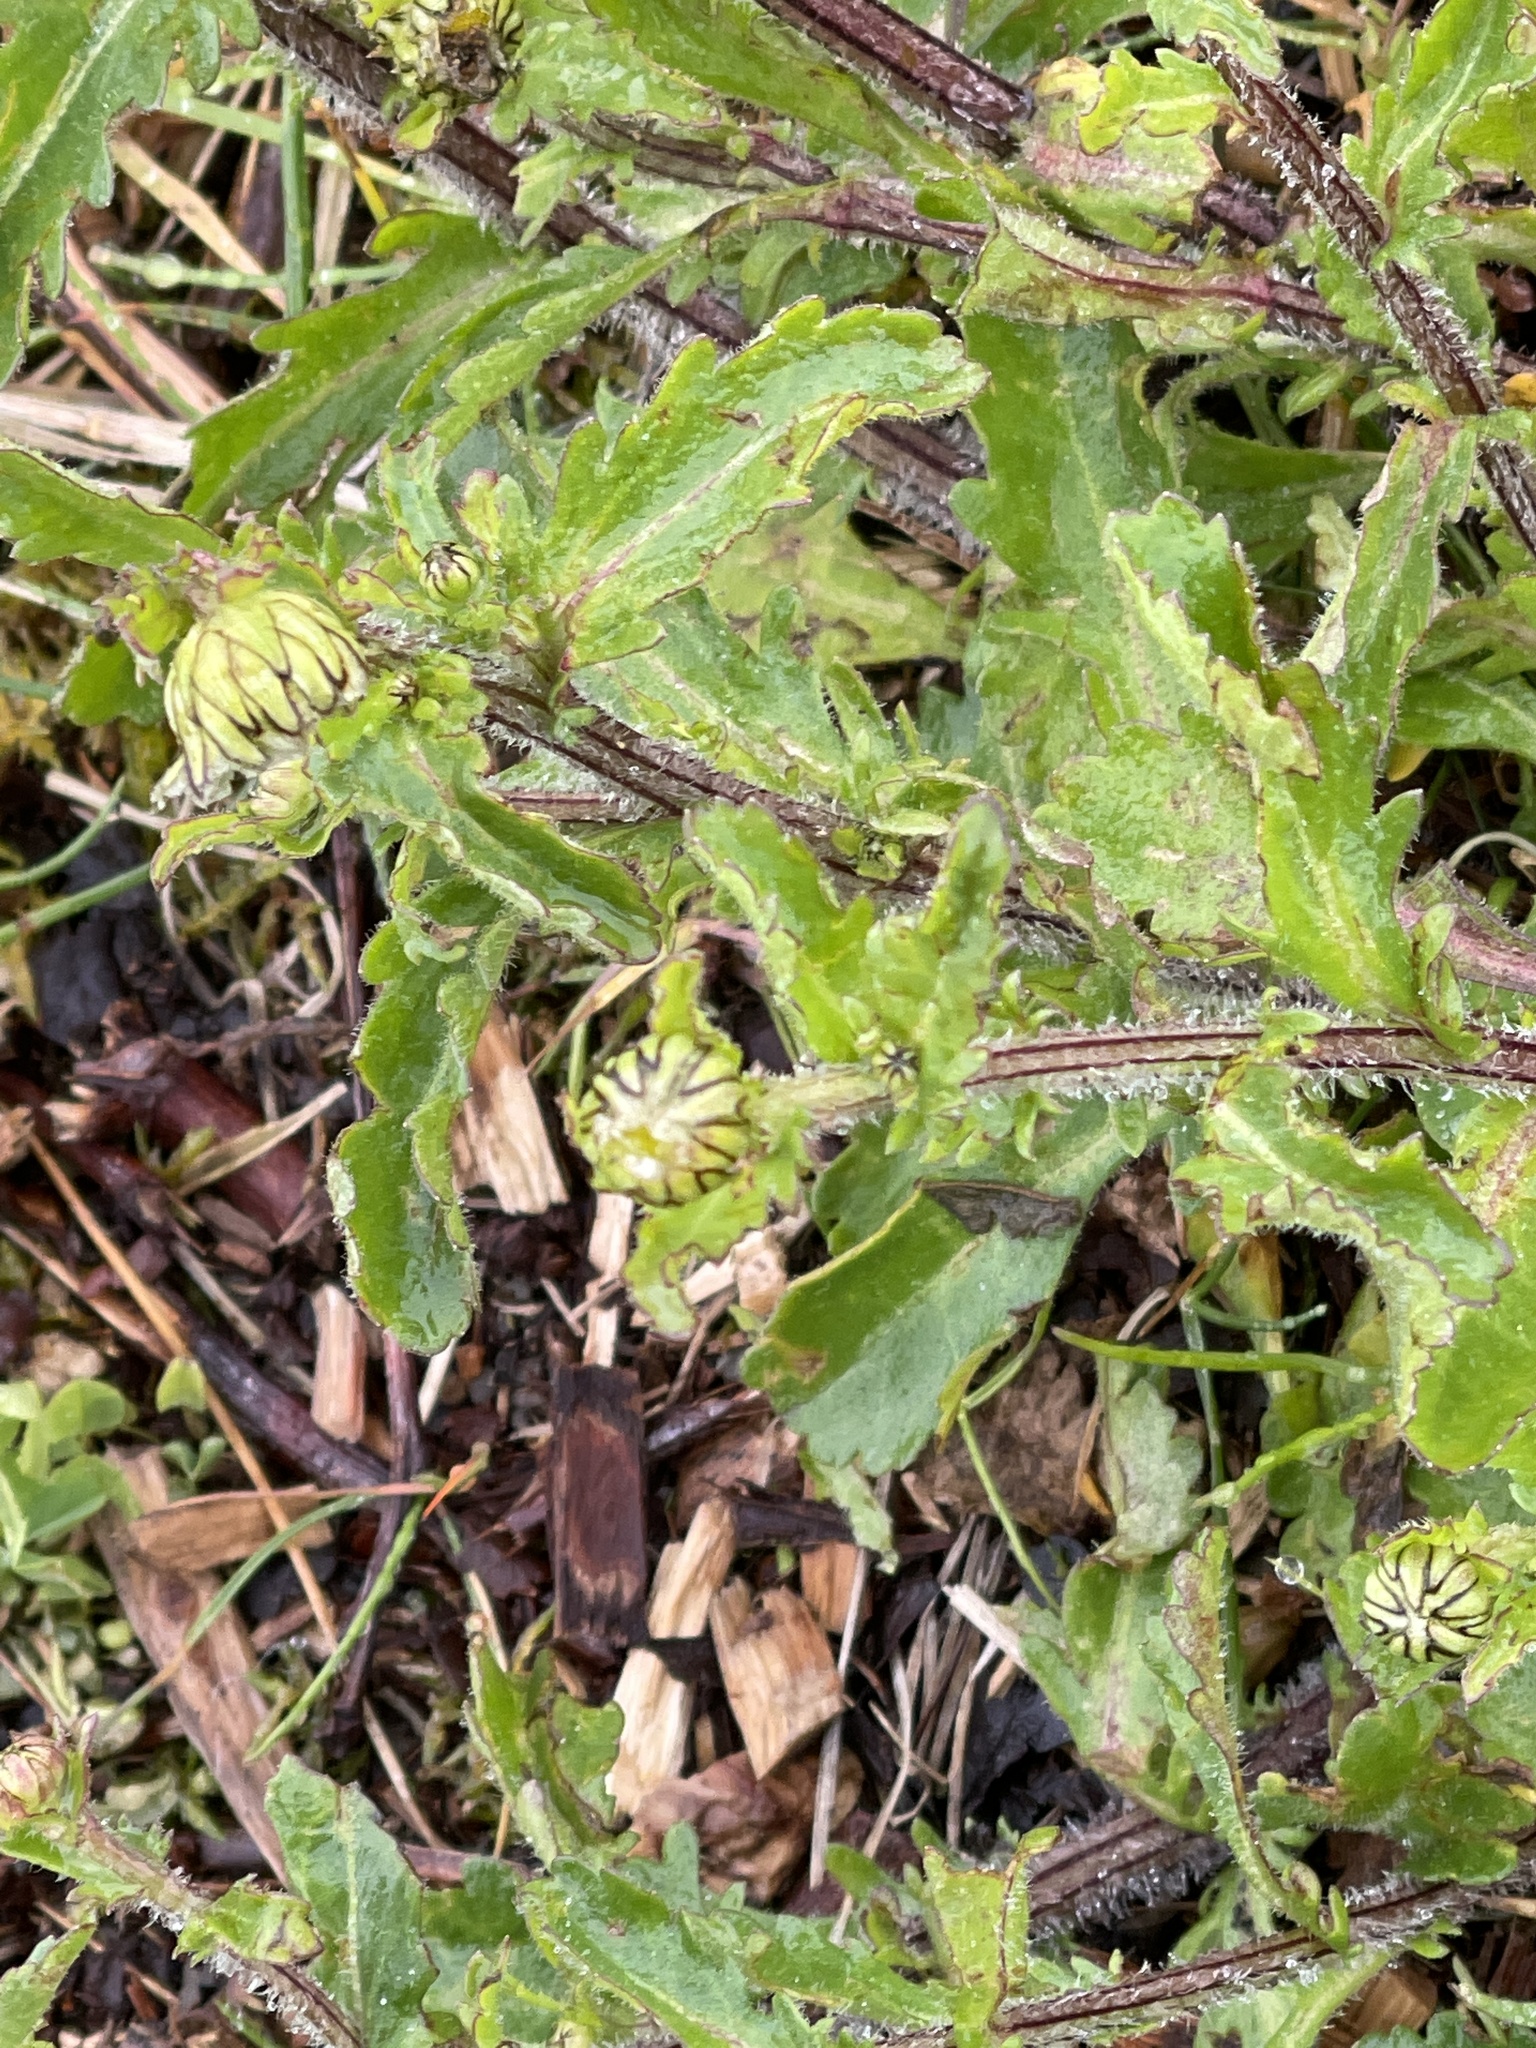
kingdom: Plantae
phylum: Tracheophyta
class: Magnoliopsida
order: Asterales
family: Asteraceae
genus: Leucanthemum
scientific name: Leucanthemum vulgare
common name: Oxeye daisy
